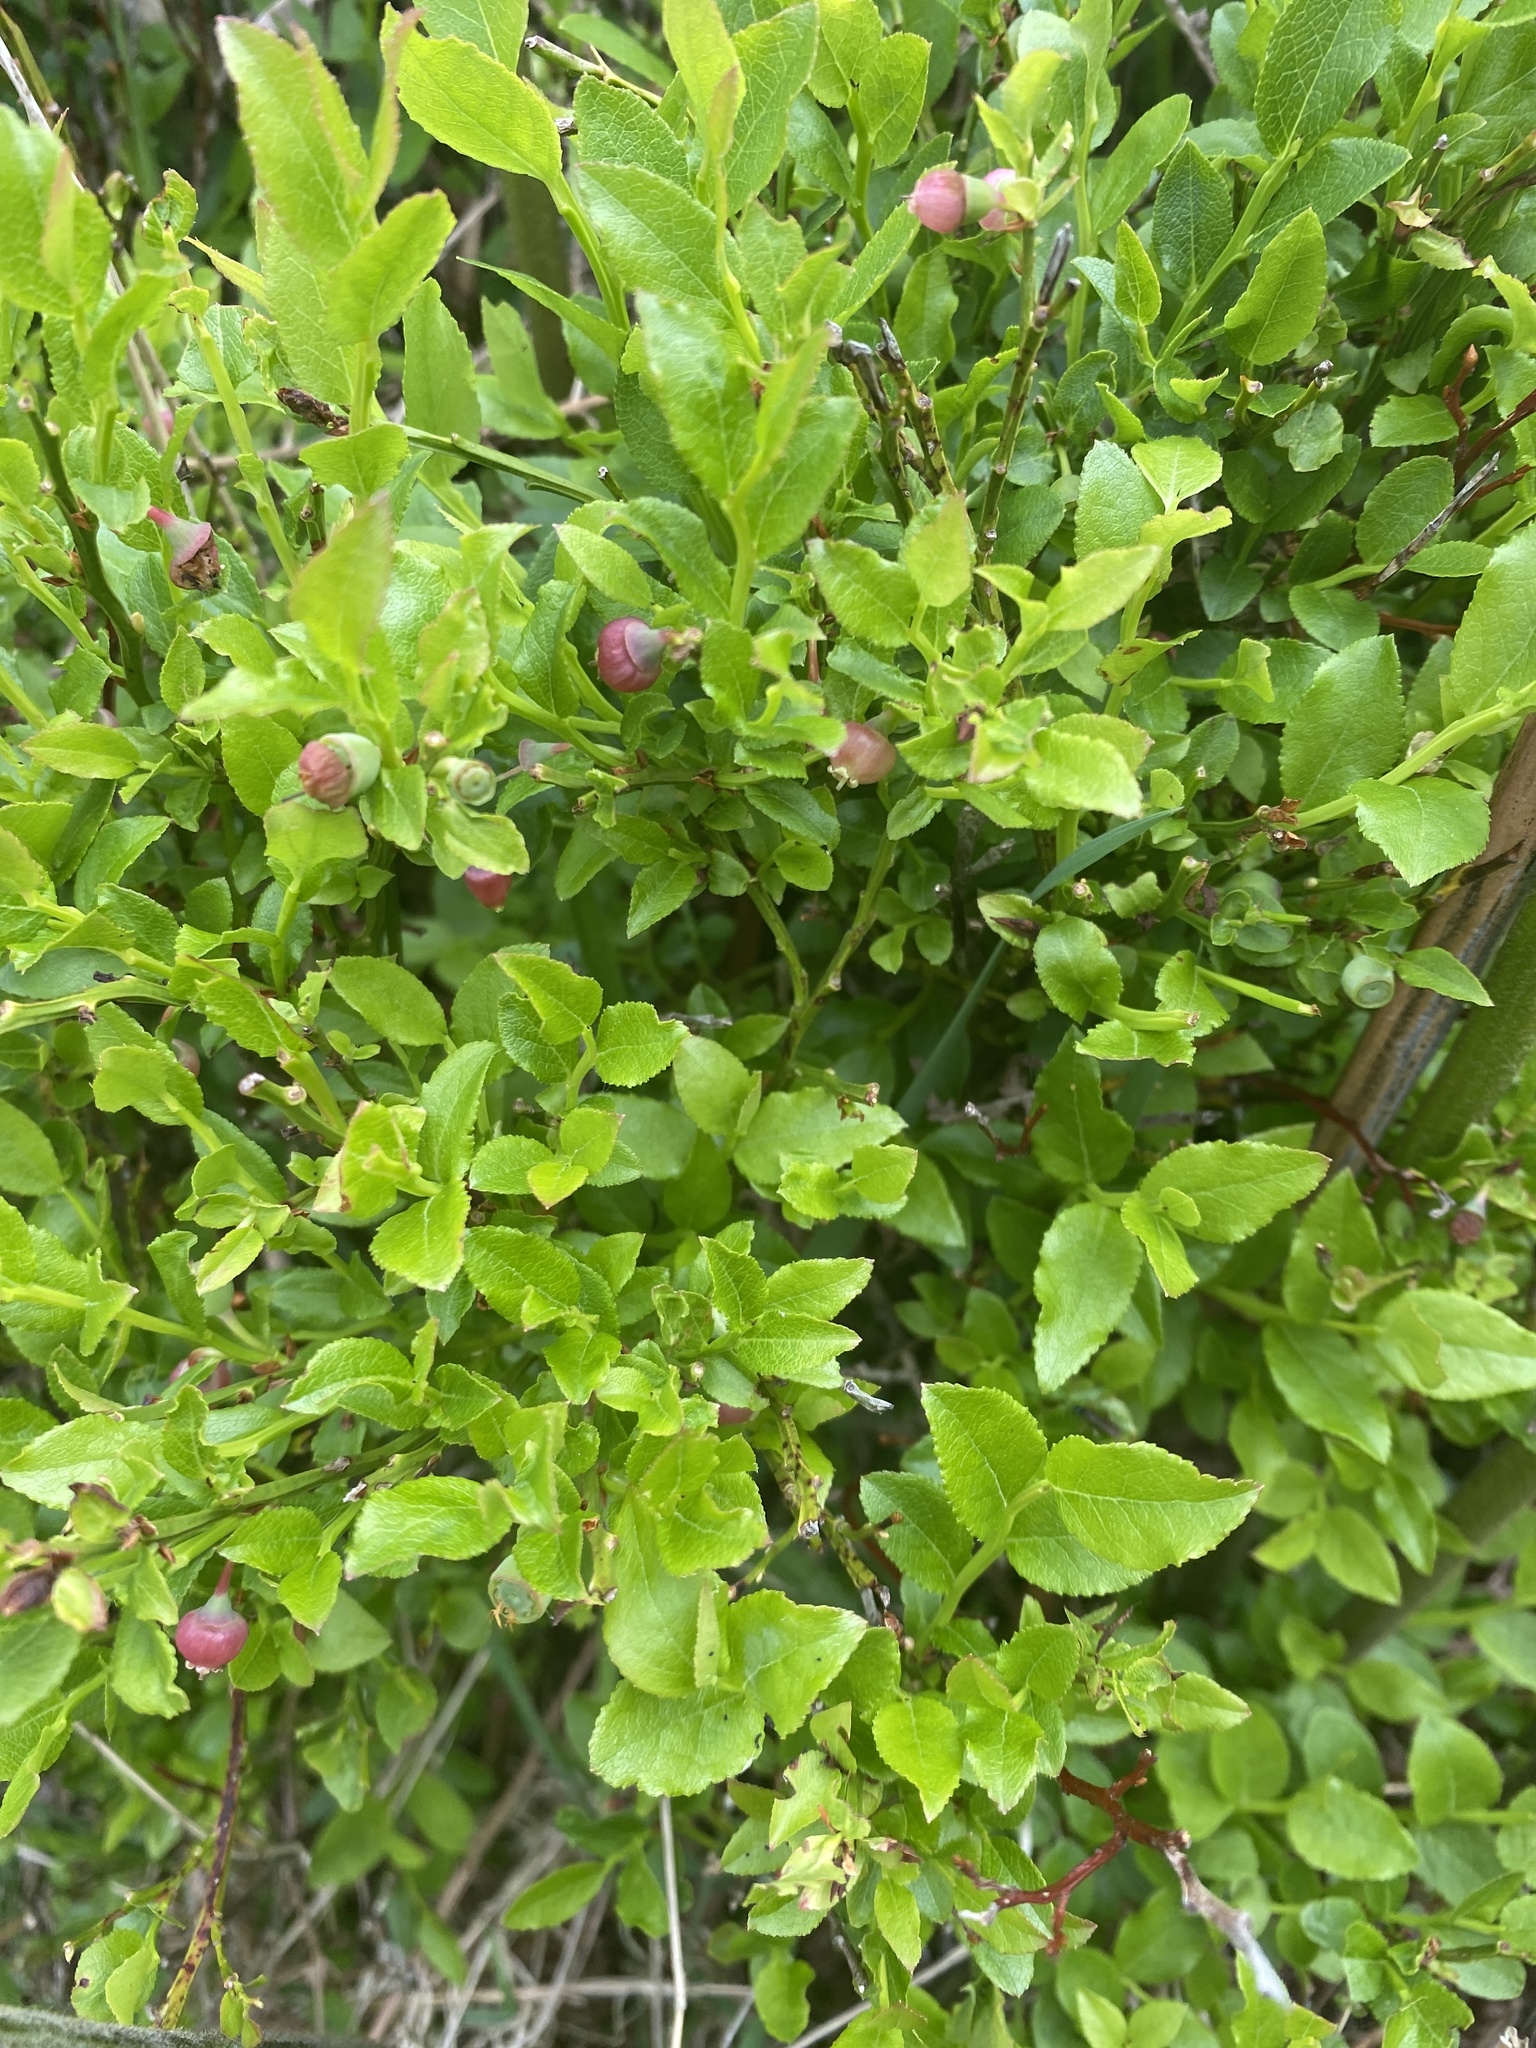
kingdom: Plantae
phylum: Tracheophyta
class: Magnoliopsida
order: Ericales
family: Ericaceae
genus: Vaccinium
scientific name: Vaccinium myrtillus
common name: Bilberry
